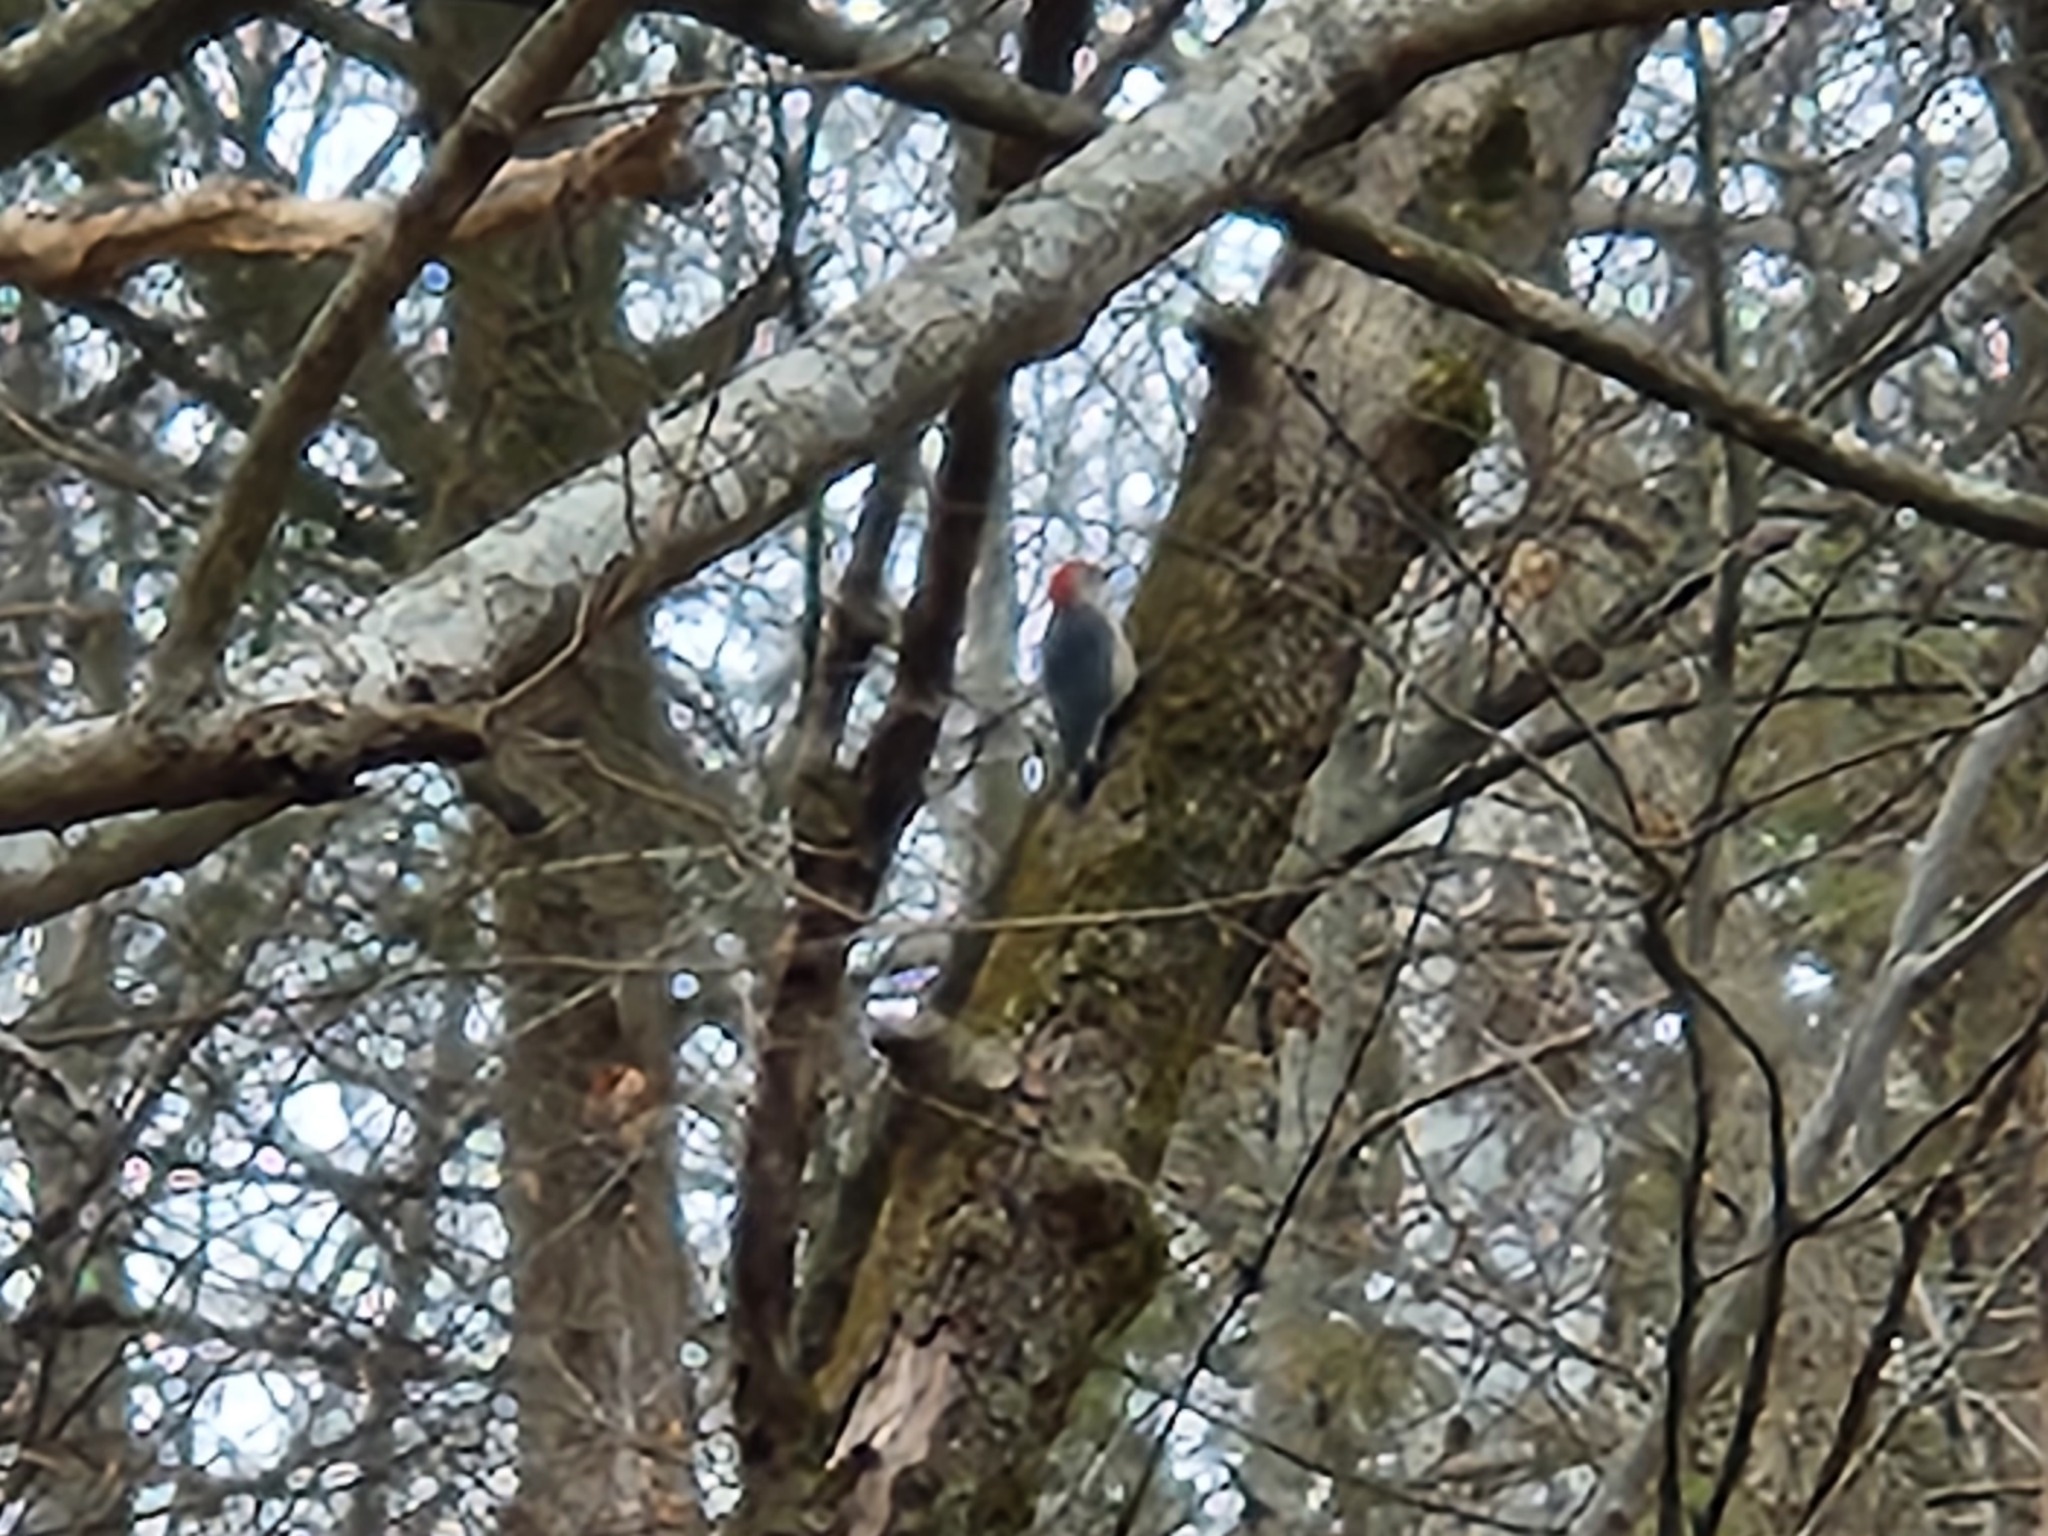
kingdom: Animalia
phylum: Chordata
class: Aves
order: Piciformes
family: Picidae
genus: Melanerpes
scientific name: Melanerpes carolinus
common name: Red-bellied woodpecker
